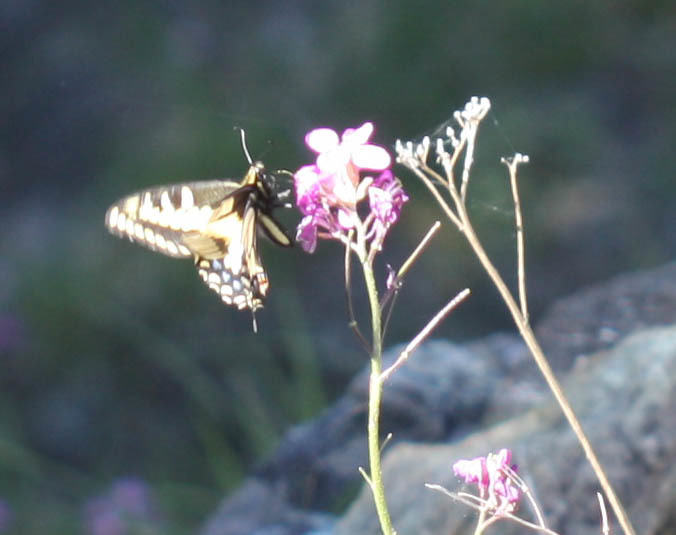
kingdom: Animalia
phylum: Arthropoda
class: Insecta
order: Lepidoptera
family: Papilionidae
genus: Papilio
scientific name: Papilio zelicaon
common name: Anise swallowtail
